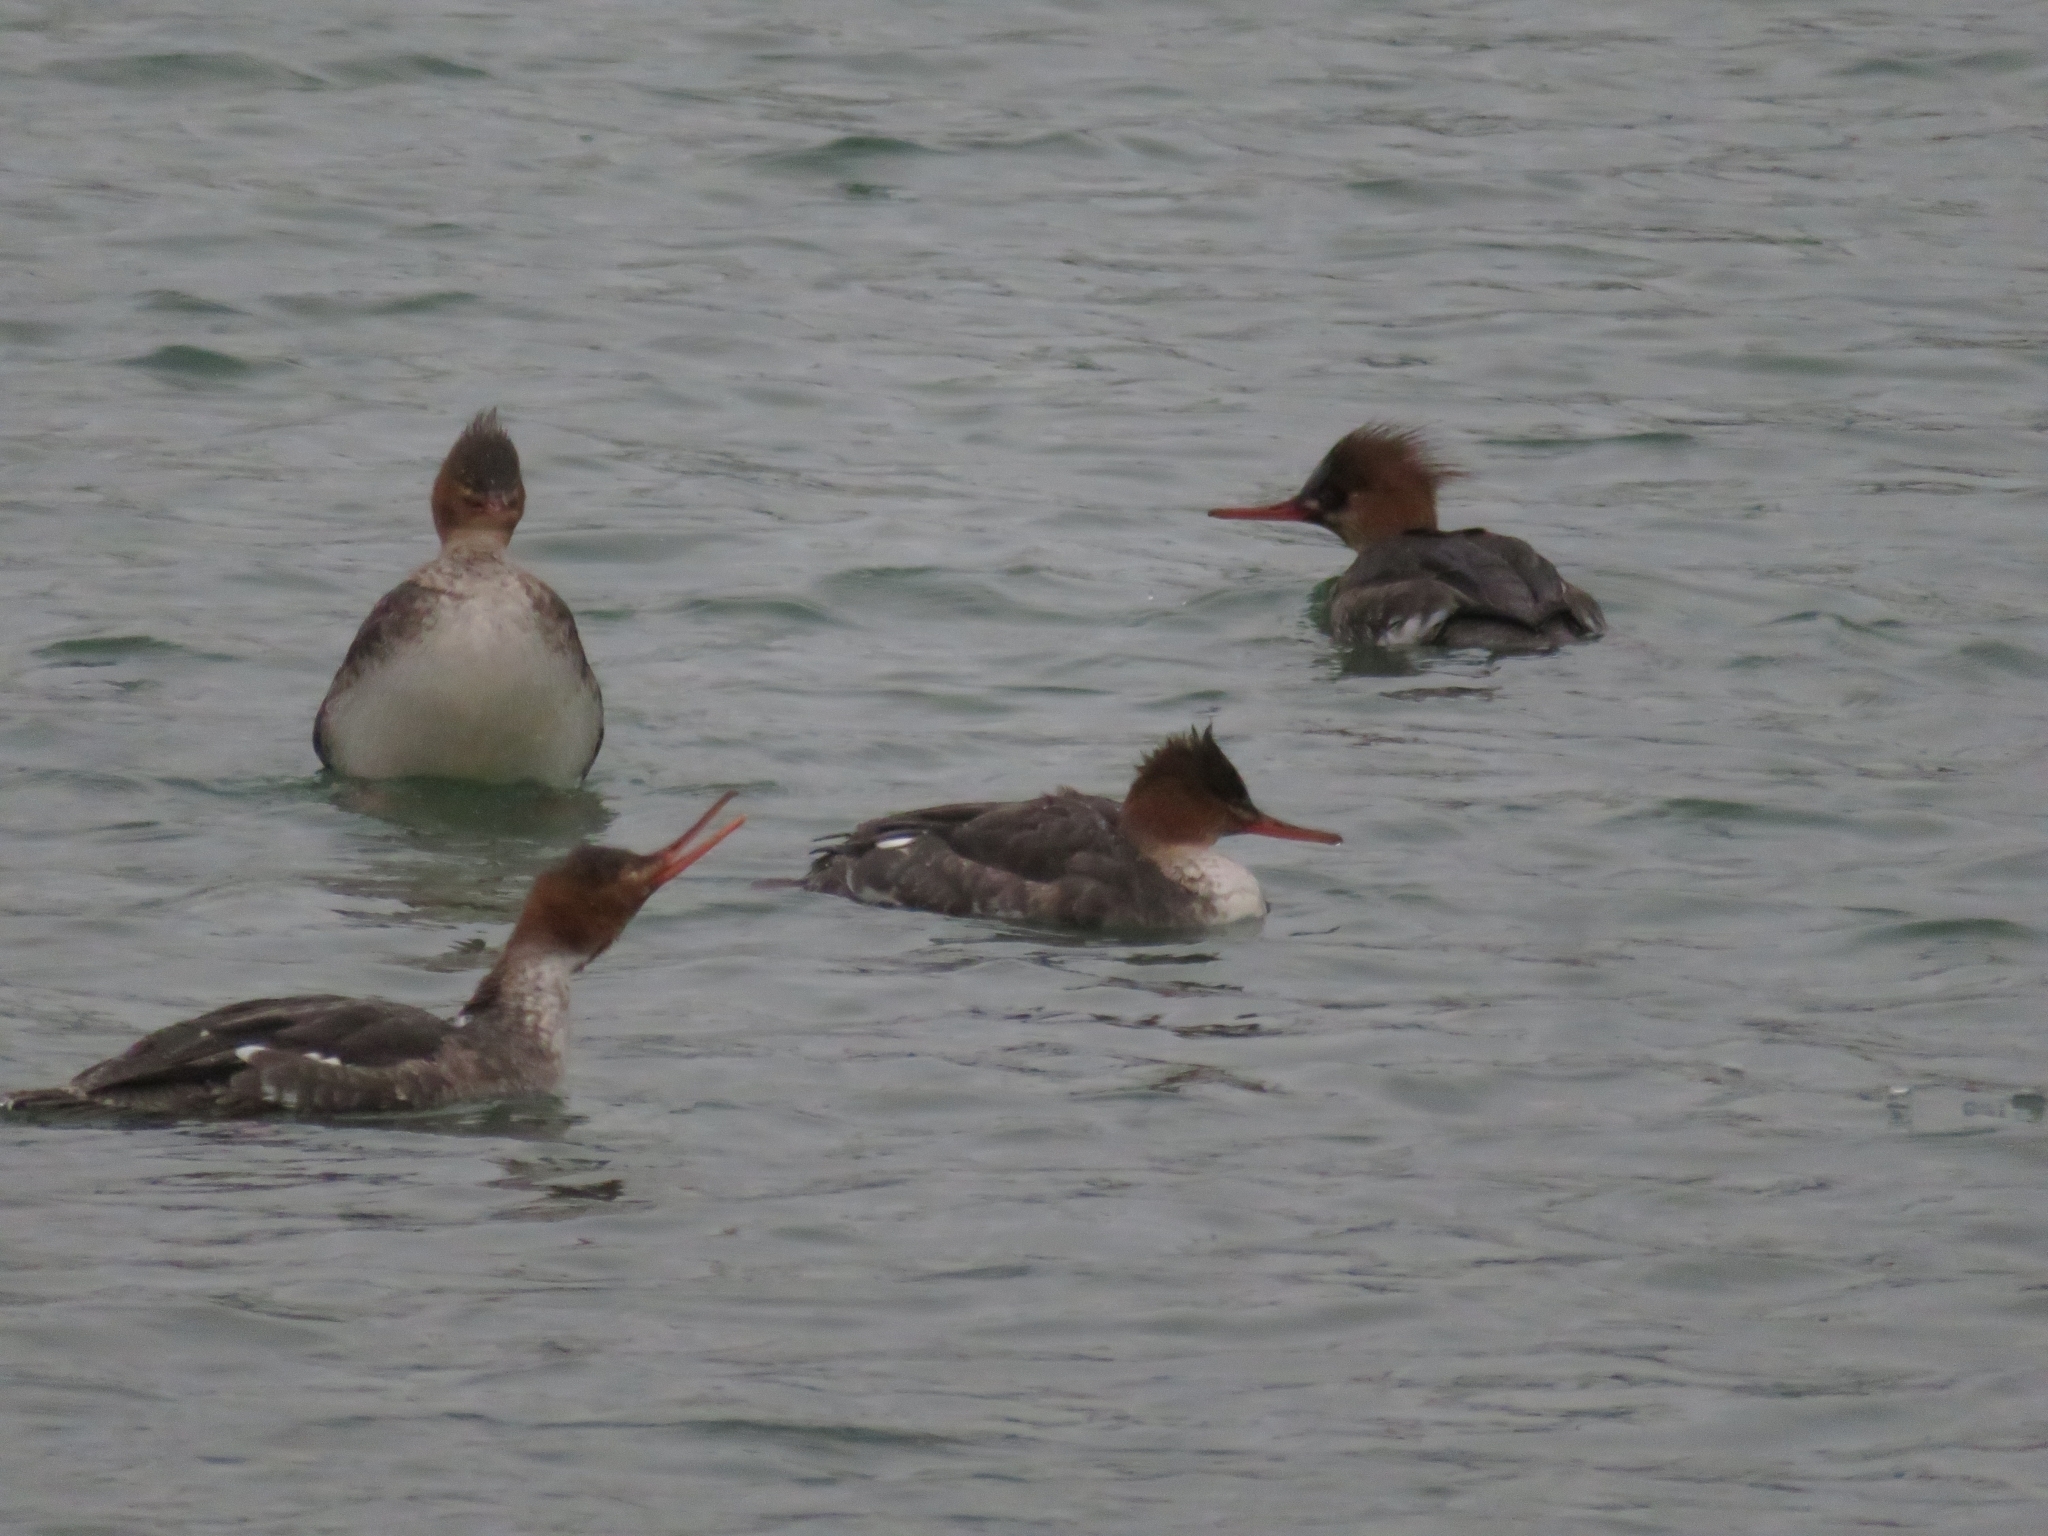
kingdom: Animalia
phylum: Chordata
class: Aves
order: Anseriformes
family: Anatidae
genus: Mergus
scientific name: Mergus serrator
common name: Red-breasted merganser
